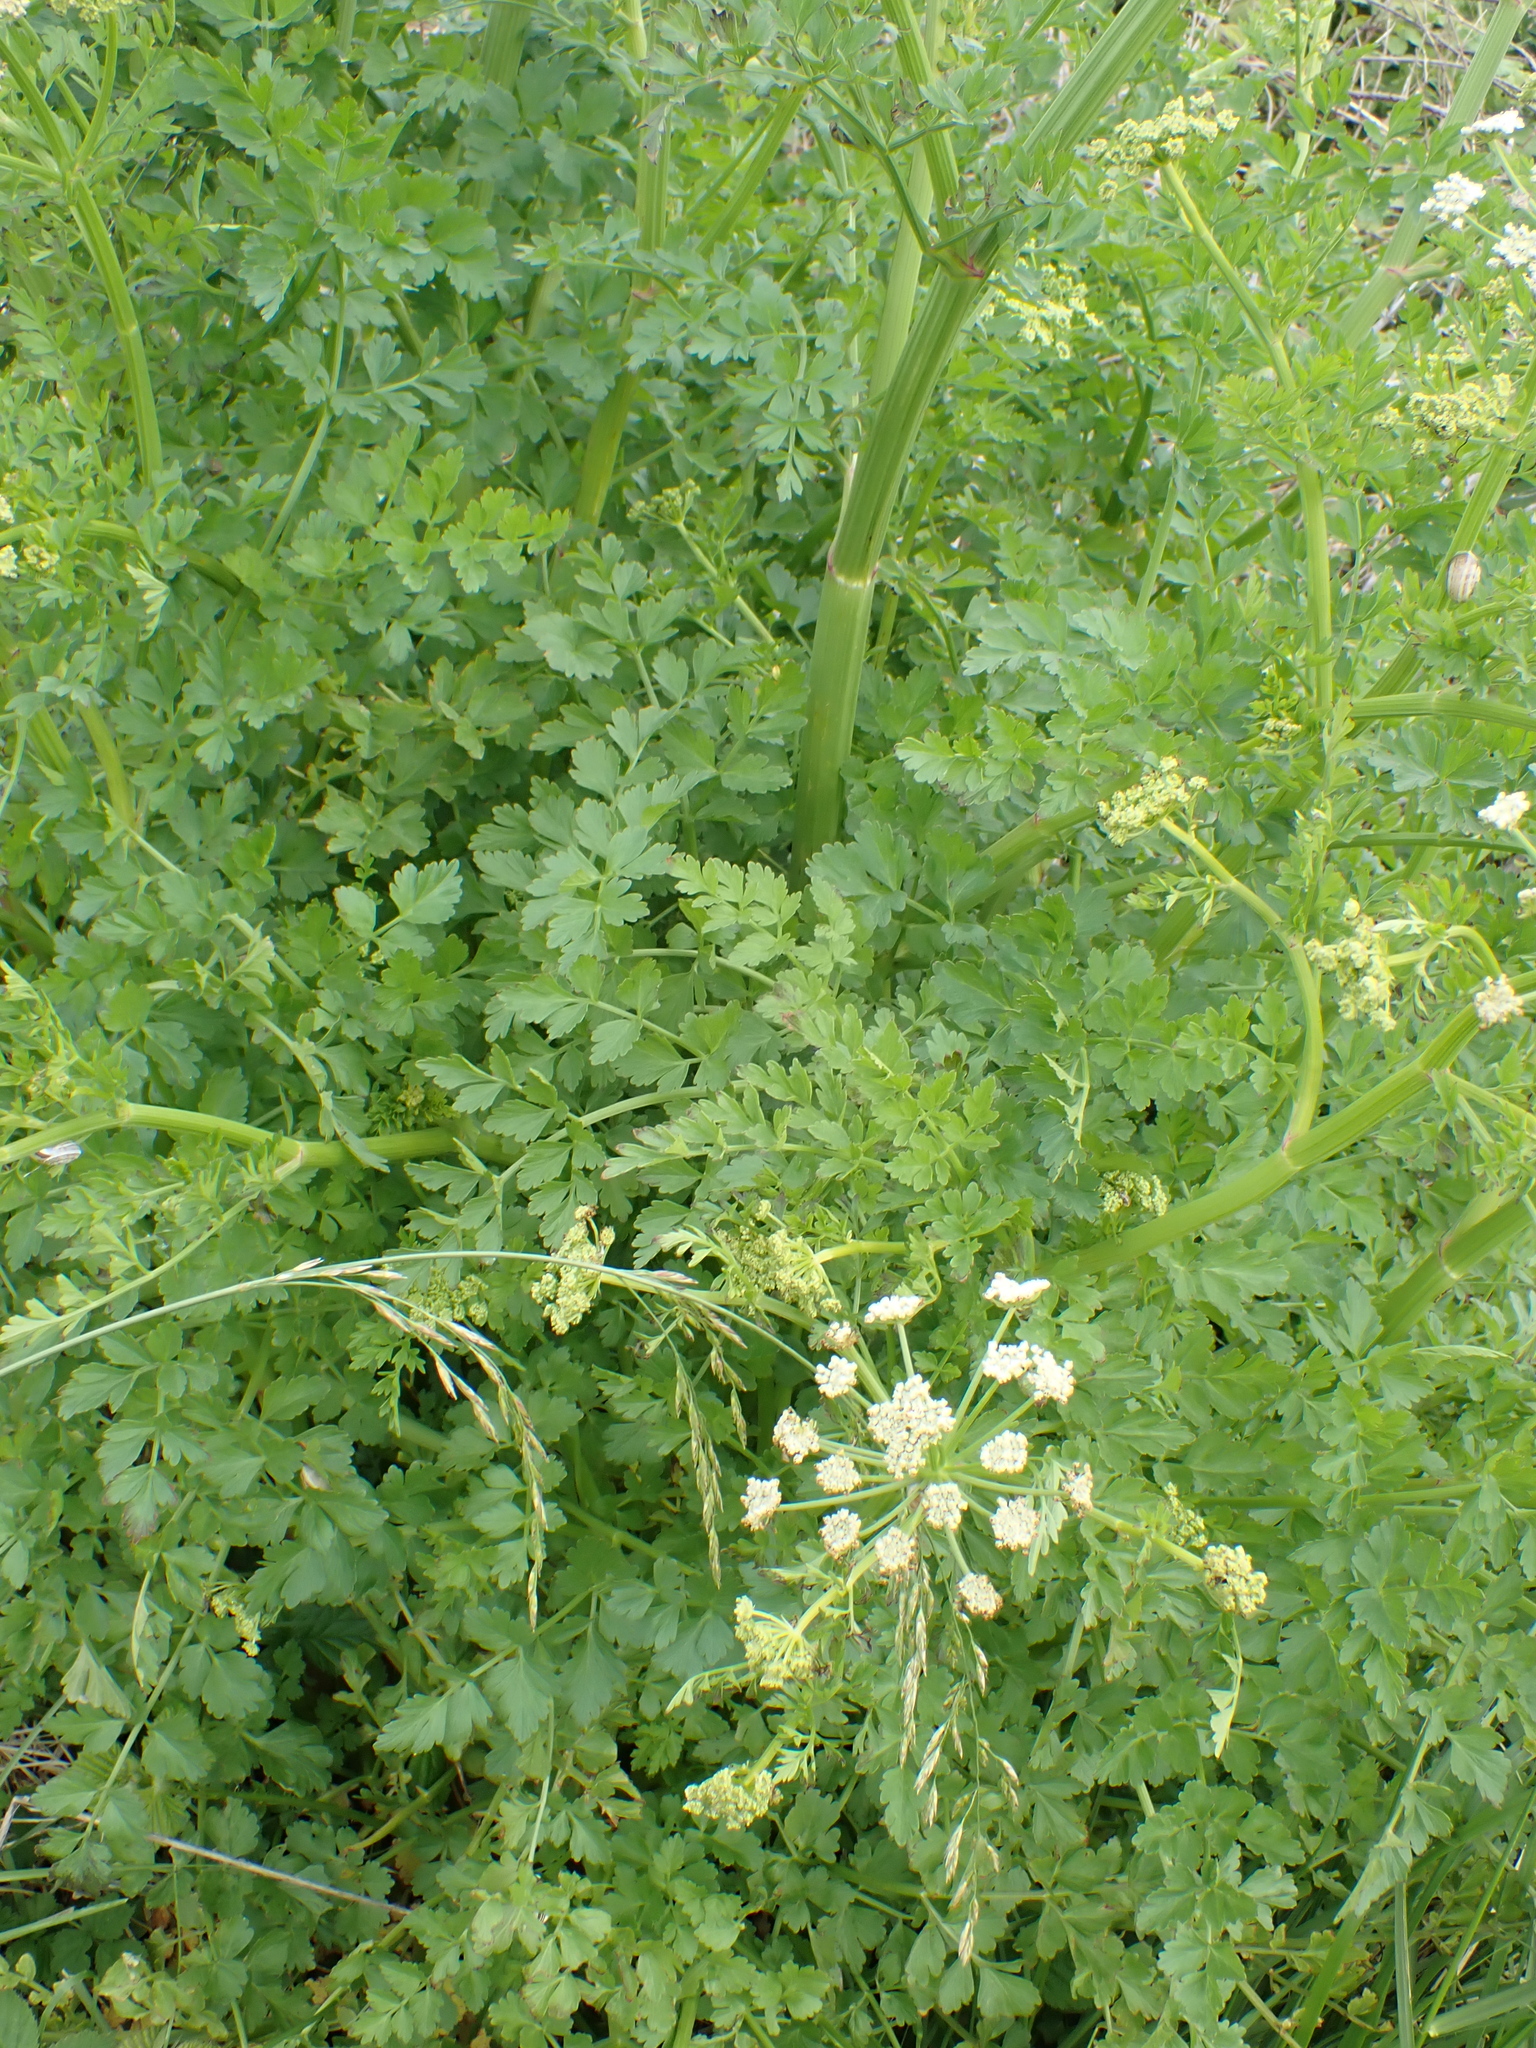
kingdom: Plantae
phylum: Tracheophyta
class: Magnoliopsida
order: Apiales
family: Apiaceae
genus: Oenanthe
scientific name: Oenanthe crocata
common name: Hemlock water-dropwort
